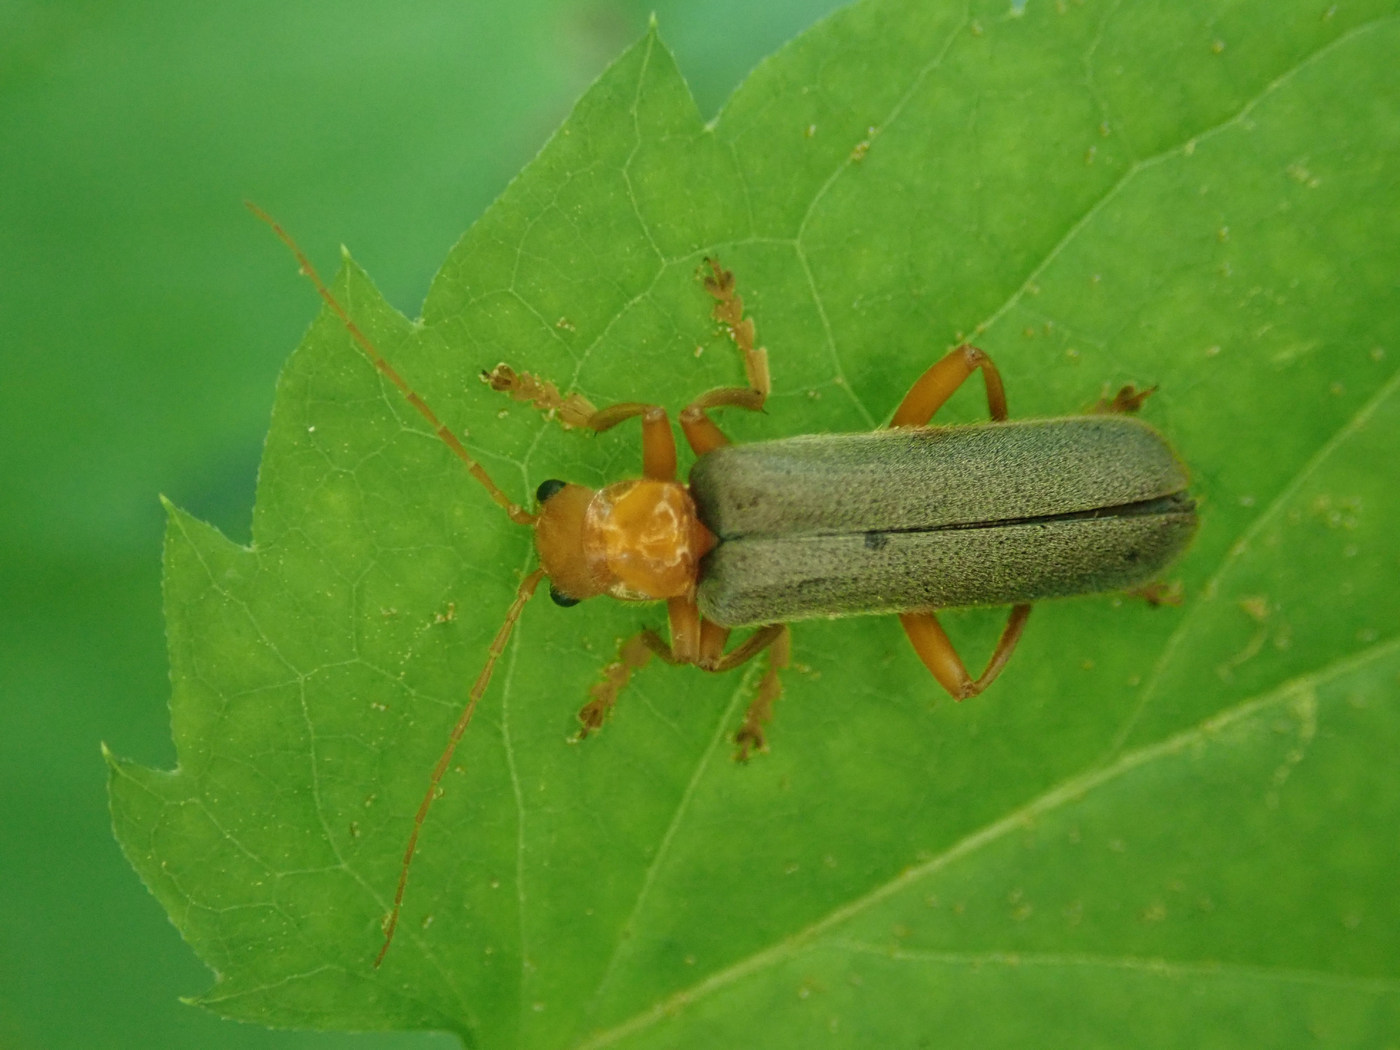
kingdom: Animalia
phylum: Arthropoda
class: Insecta
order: Coleoptera
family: Cantharidae
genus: Pacificanthia
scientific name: Pacificanthia rotundicollis
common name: Brown leatherwing beetle
